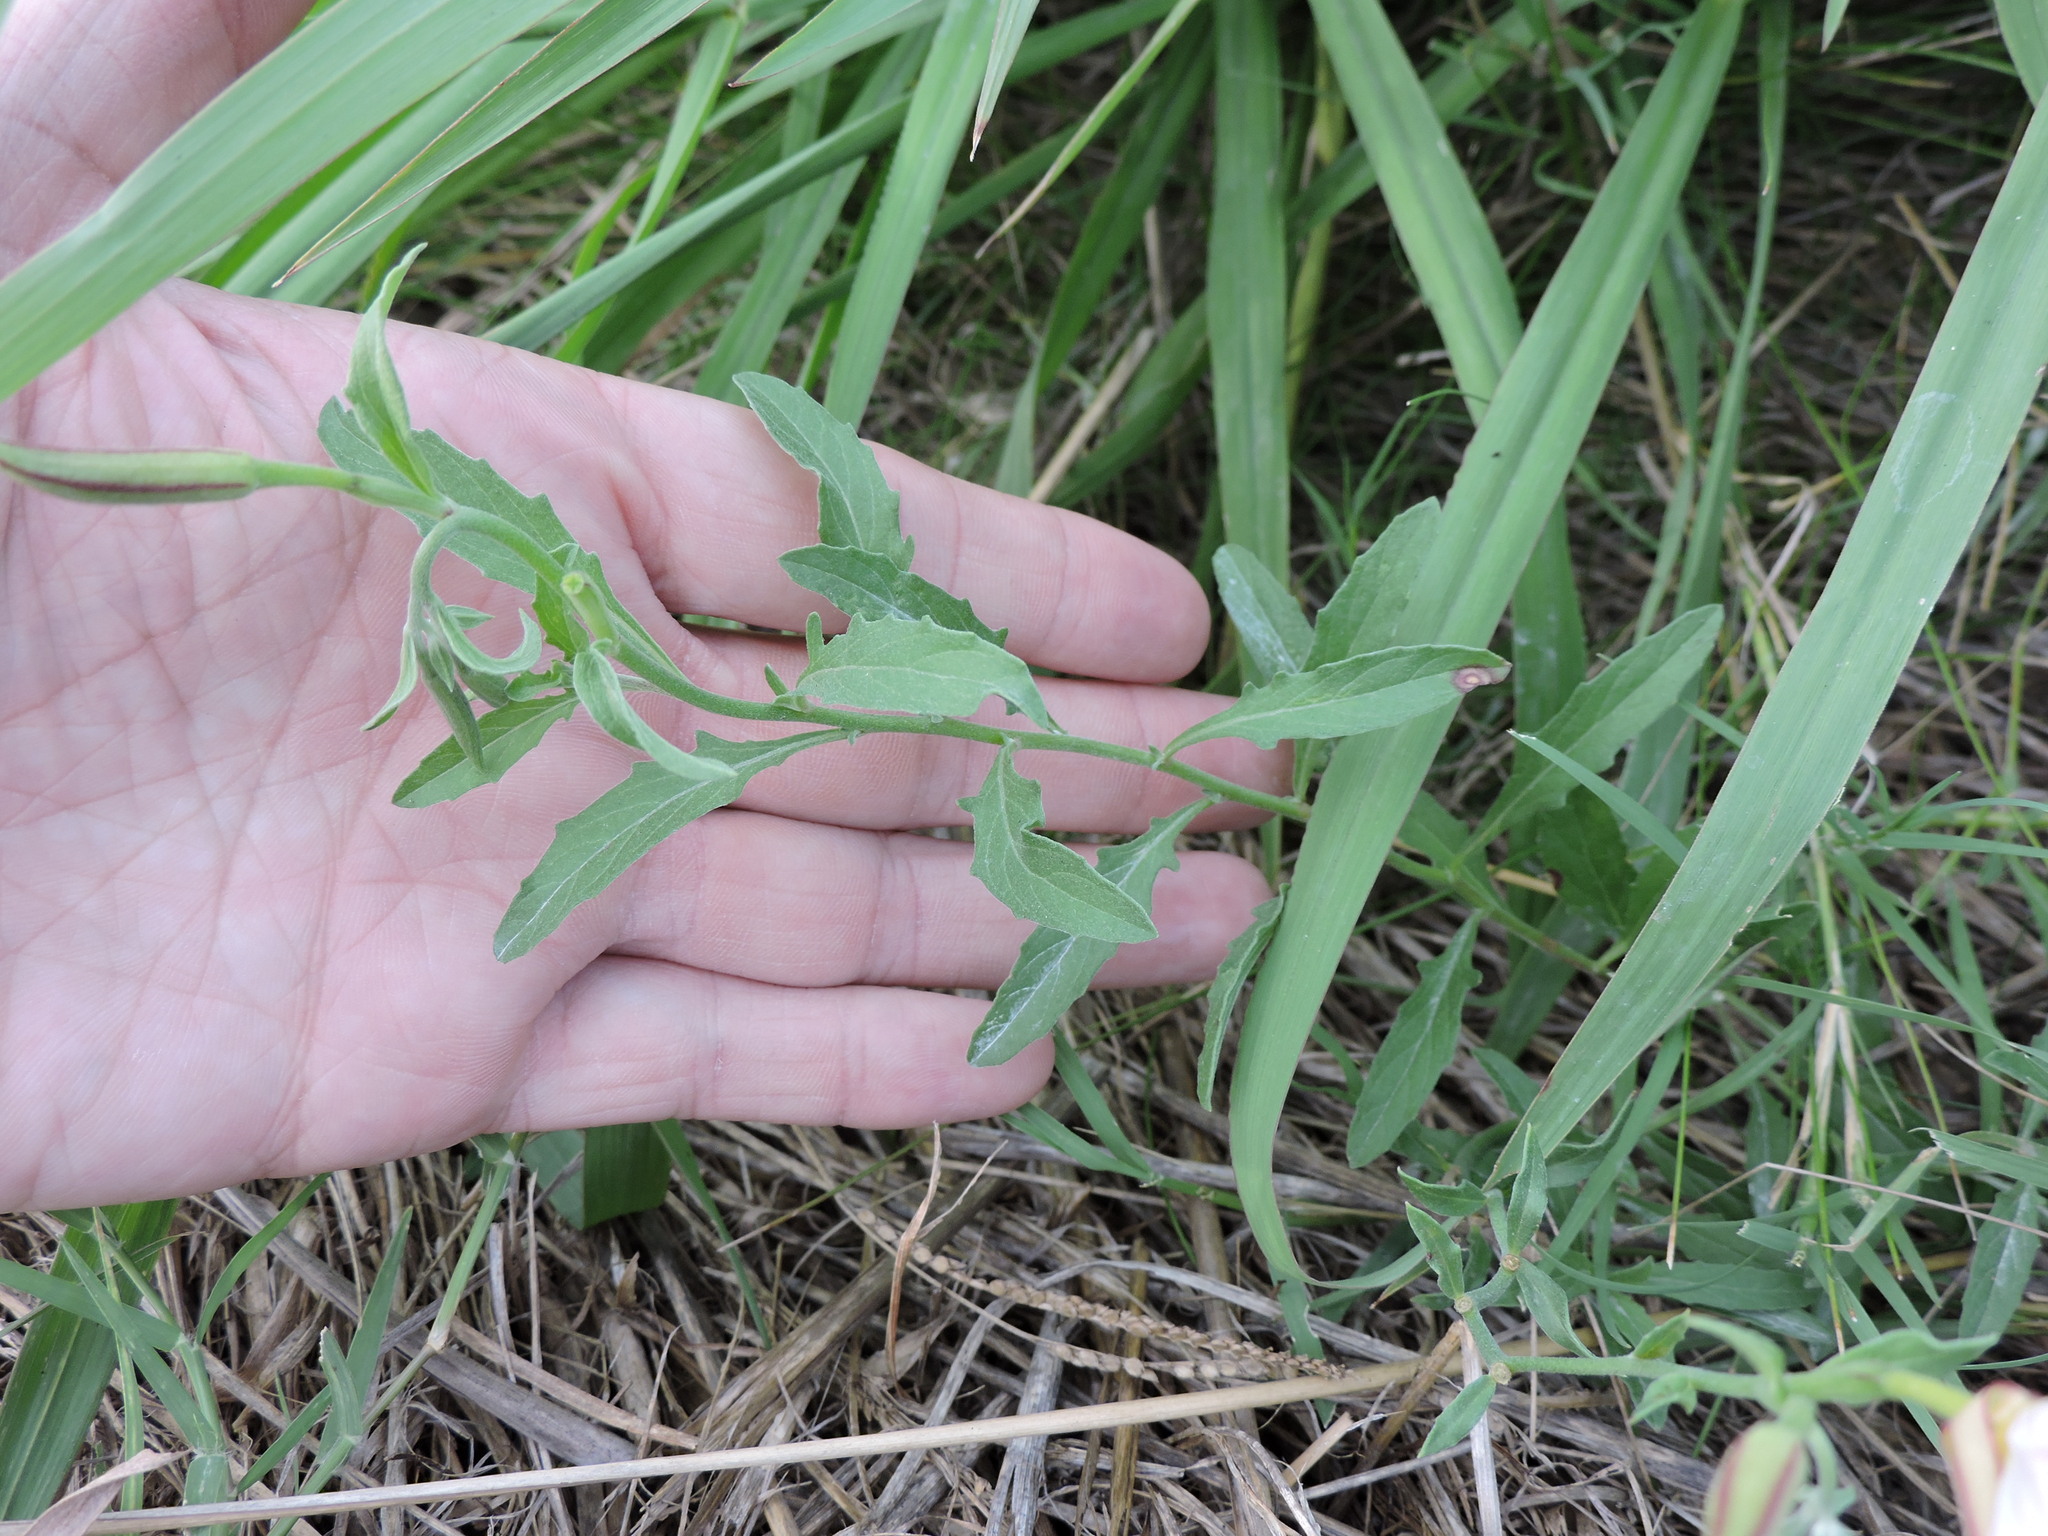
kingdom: Plantae
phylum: Tracheophyta
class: Magnoliopsida
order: Myrtales
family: Onagraceae
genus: Oenothera
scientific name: Oenothera speciosa
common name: White evening-primrose
